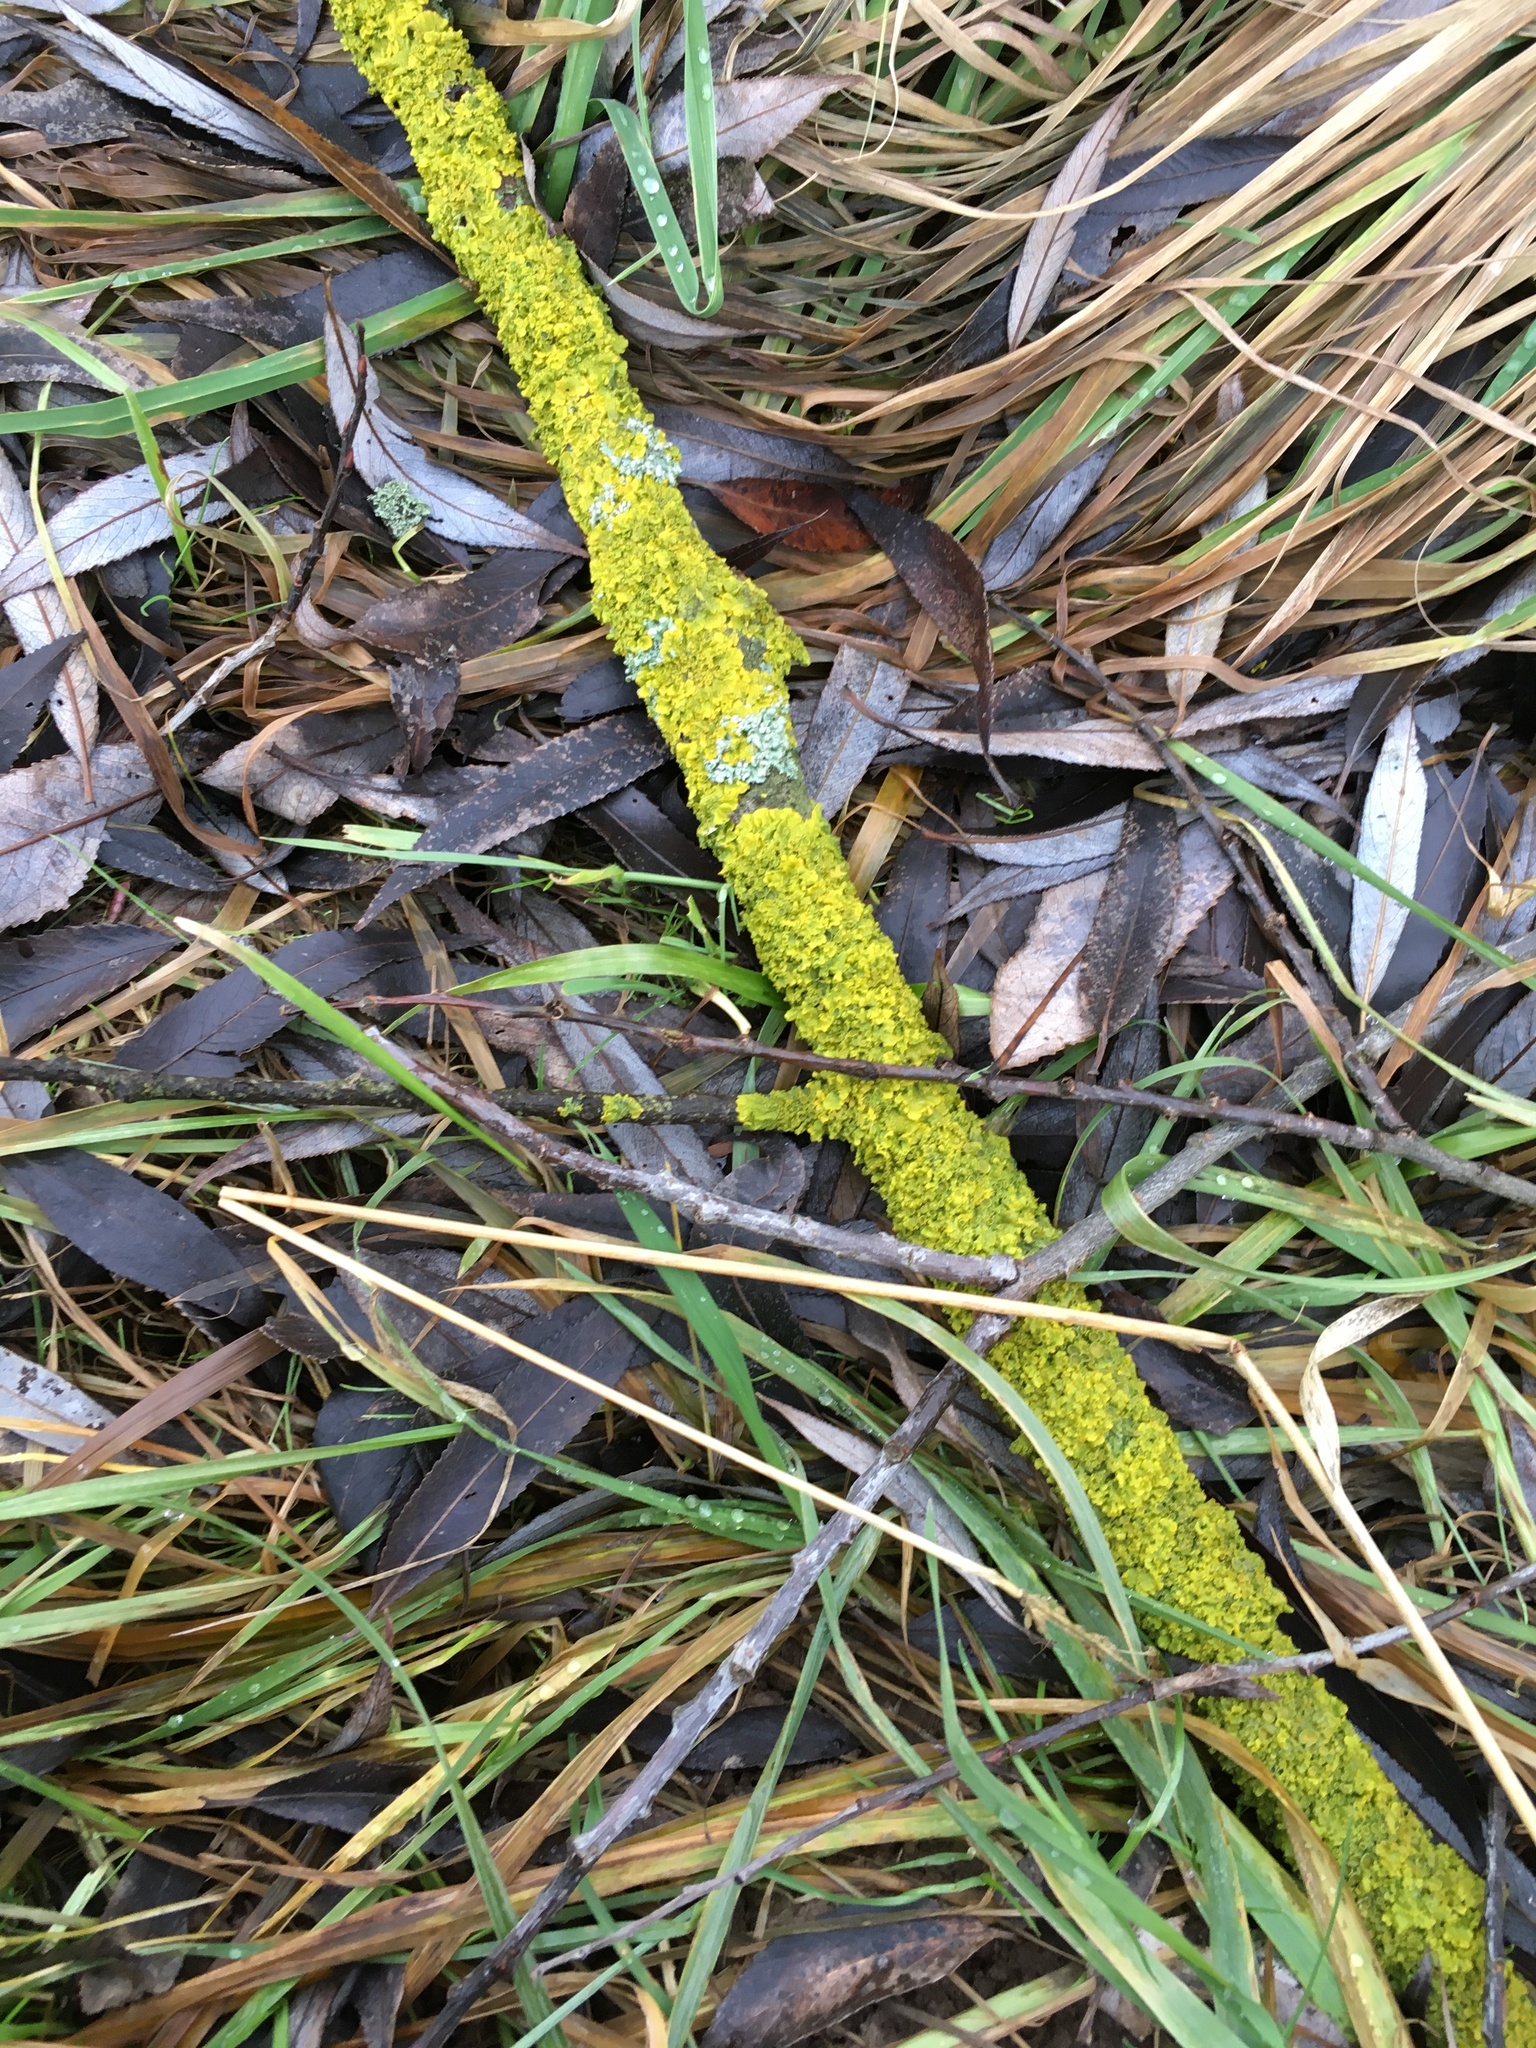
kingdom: Fungi
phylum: Ascomycota
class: Lecanoromycetes
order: Teloschistales
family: Teloschistaceae
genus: Xanthoria
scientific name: Xanthoria parietina
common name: Common orange lichen
